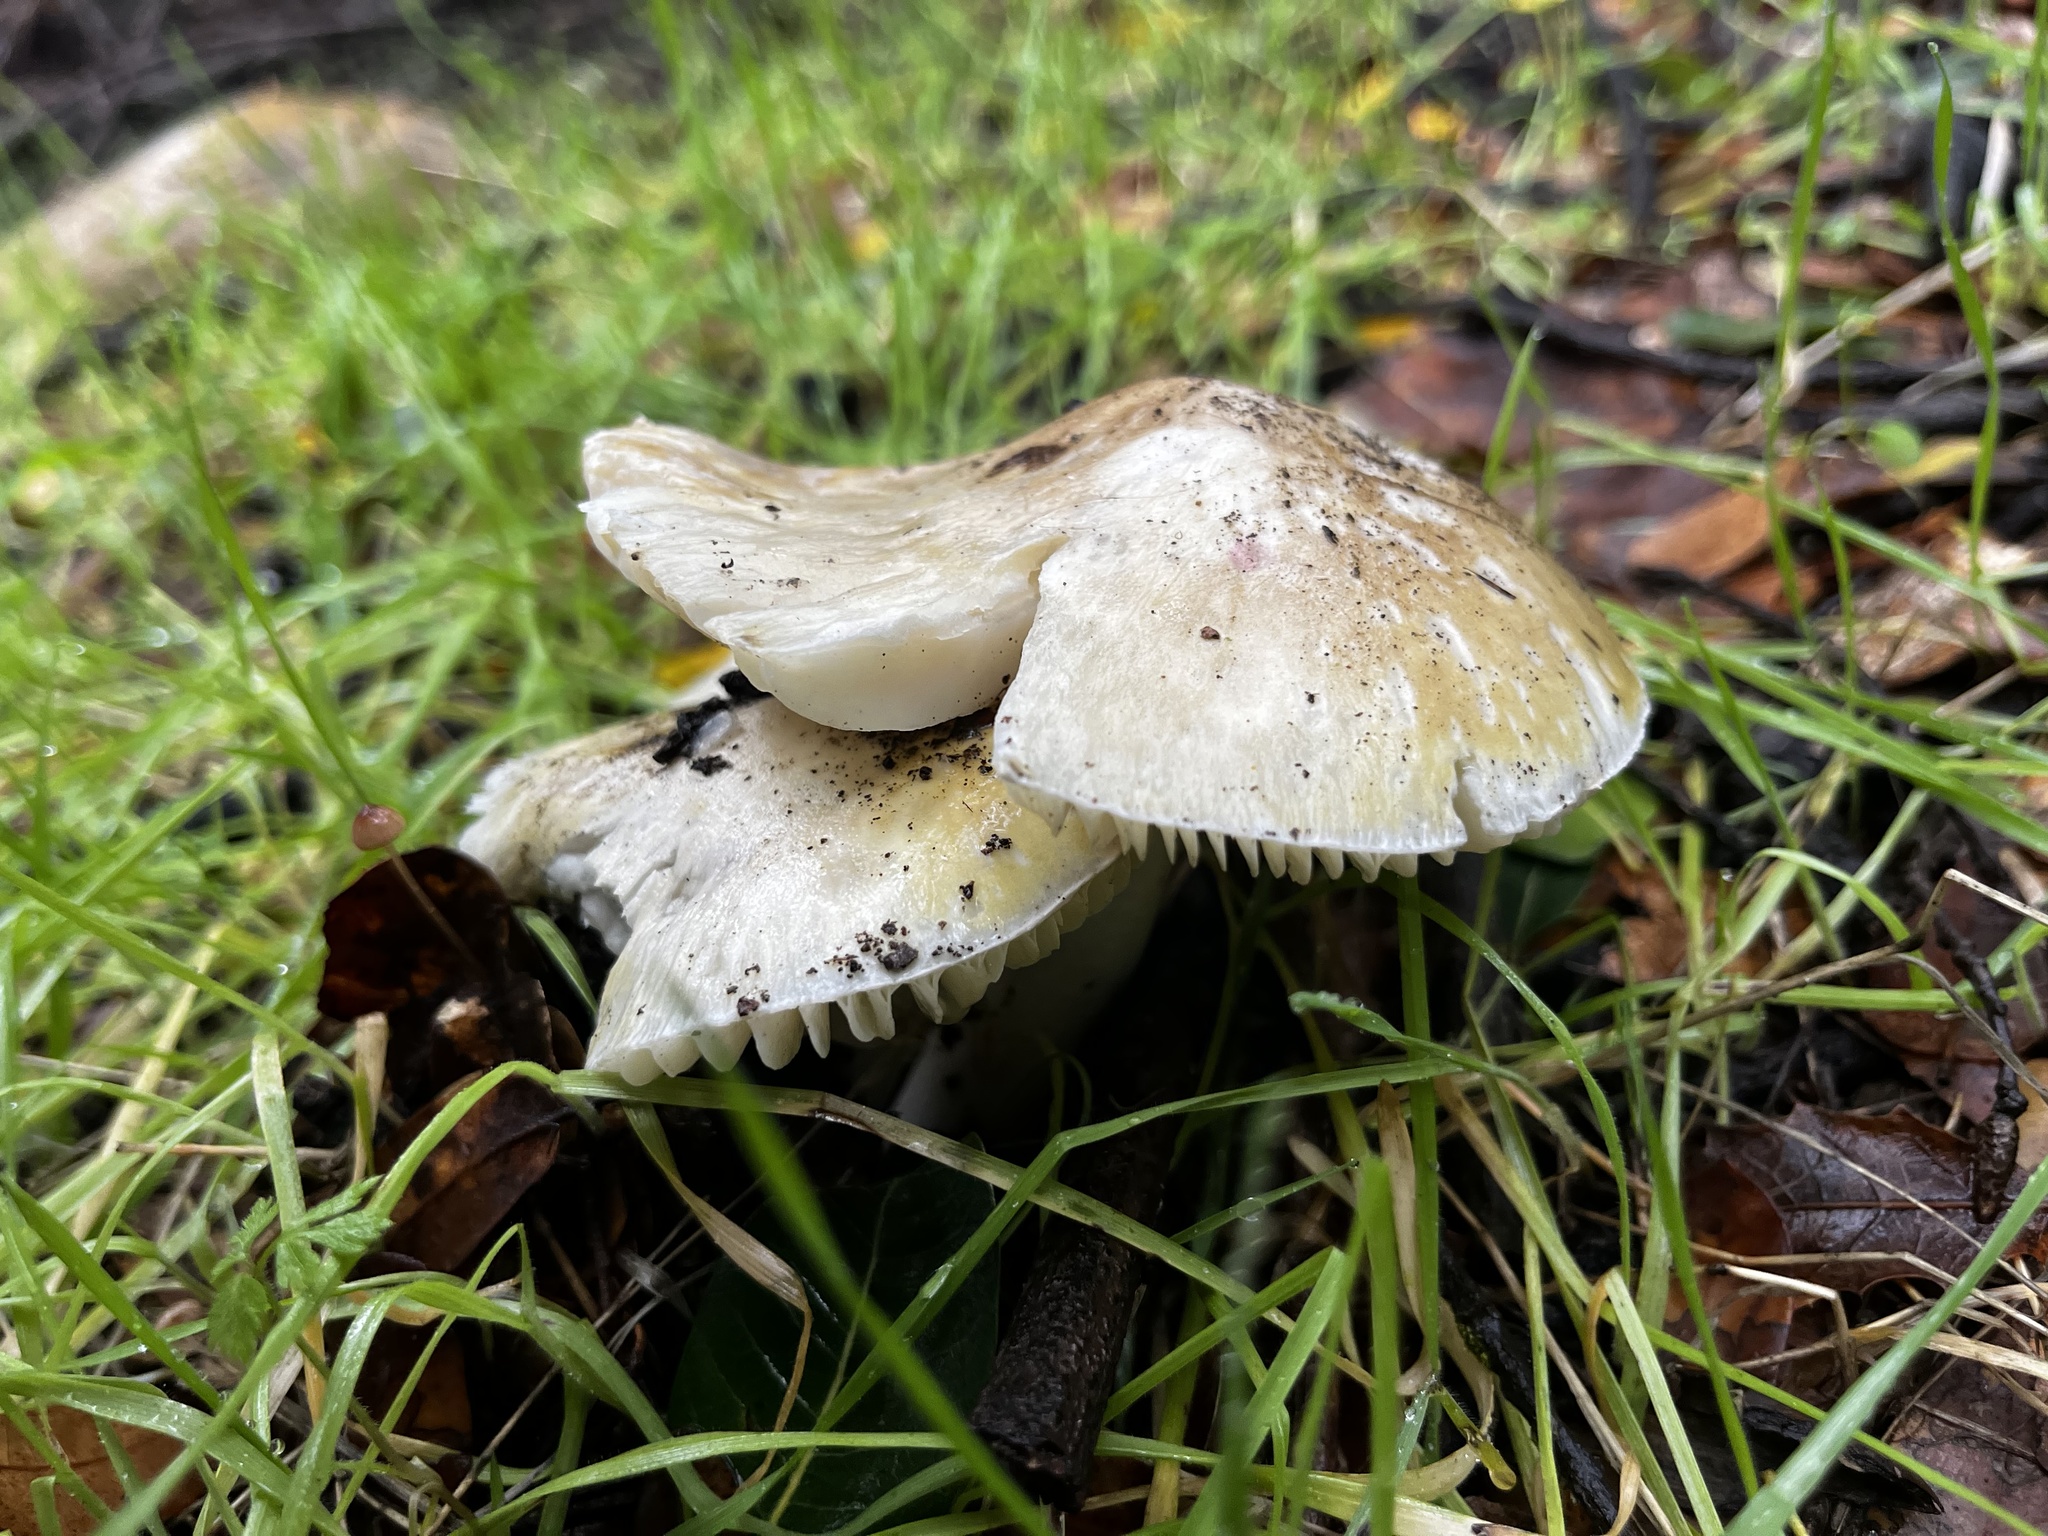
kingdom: Fungi
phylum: Basidiomycota
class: Agaricomycetes
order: Agaricales
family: Amanitaceae
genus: Amanita
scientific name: Amanita phalloides
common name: Death cap
